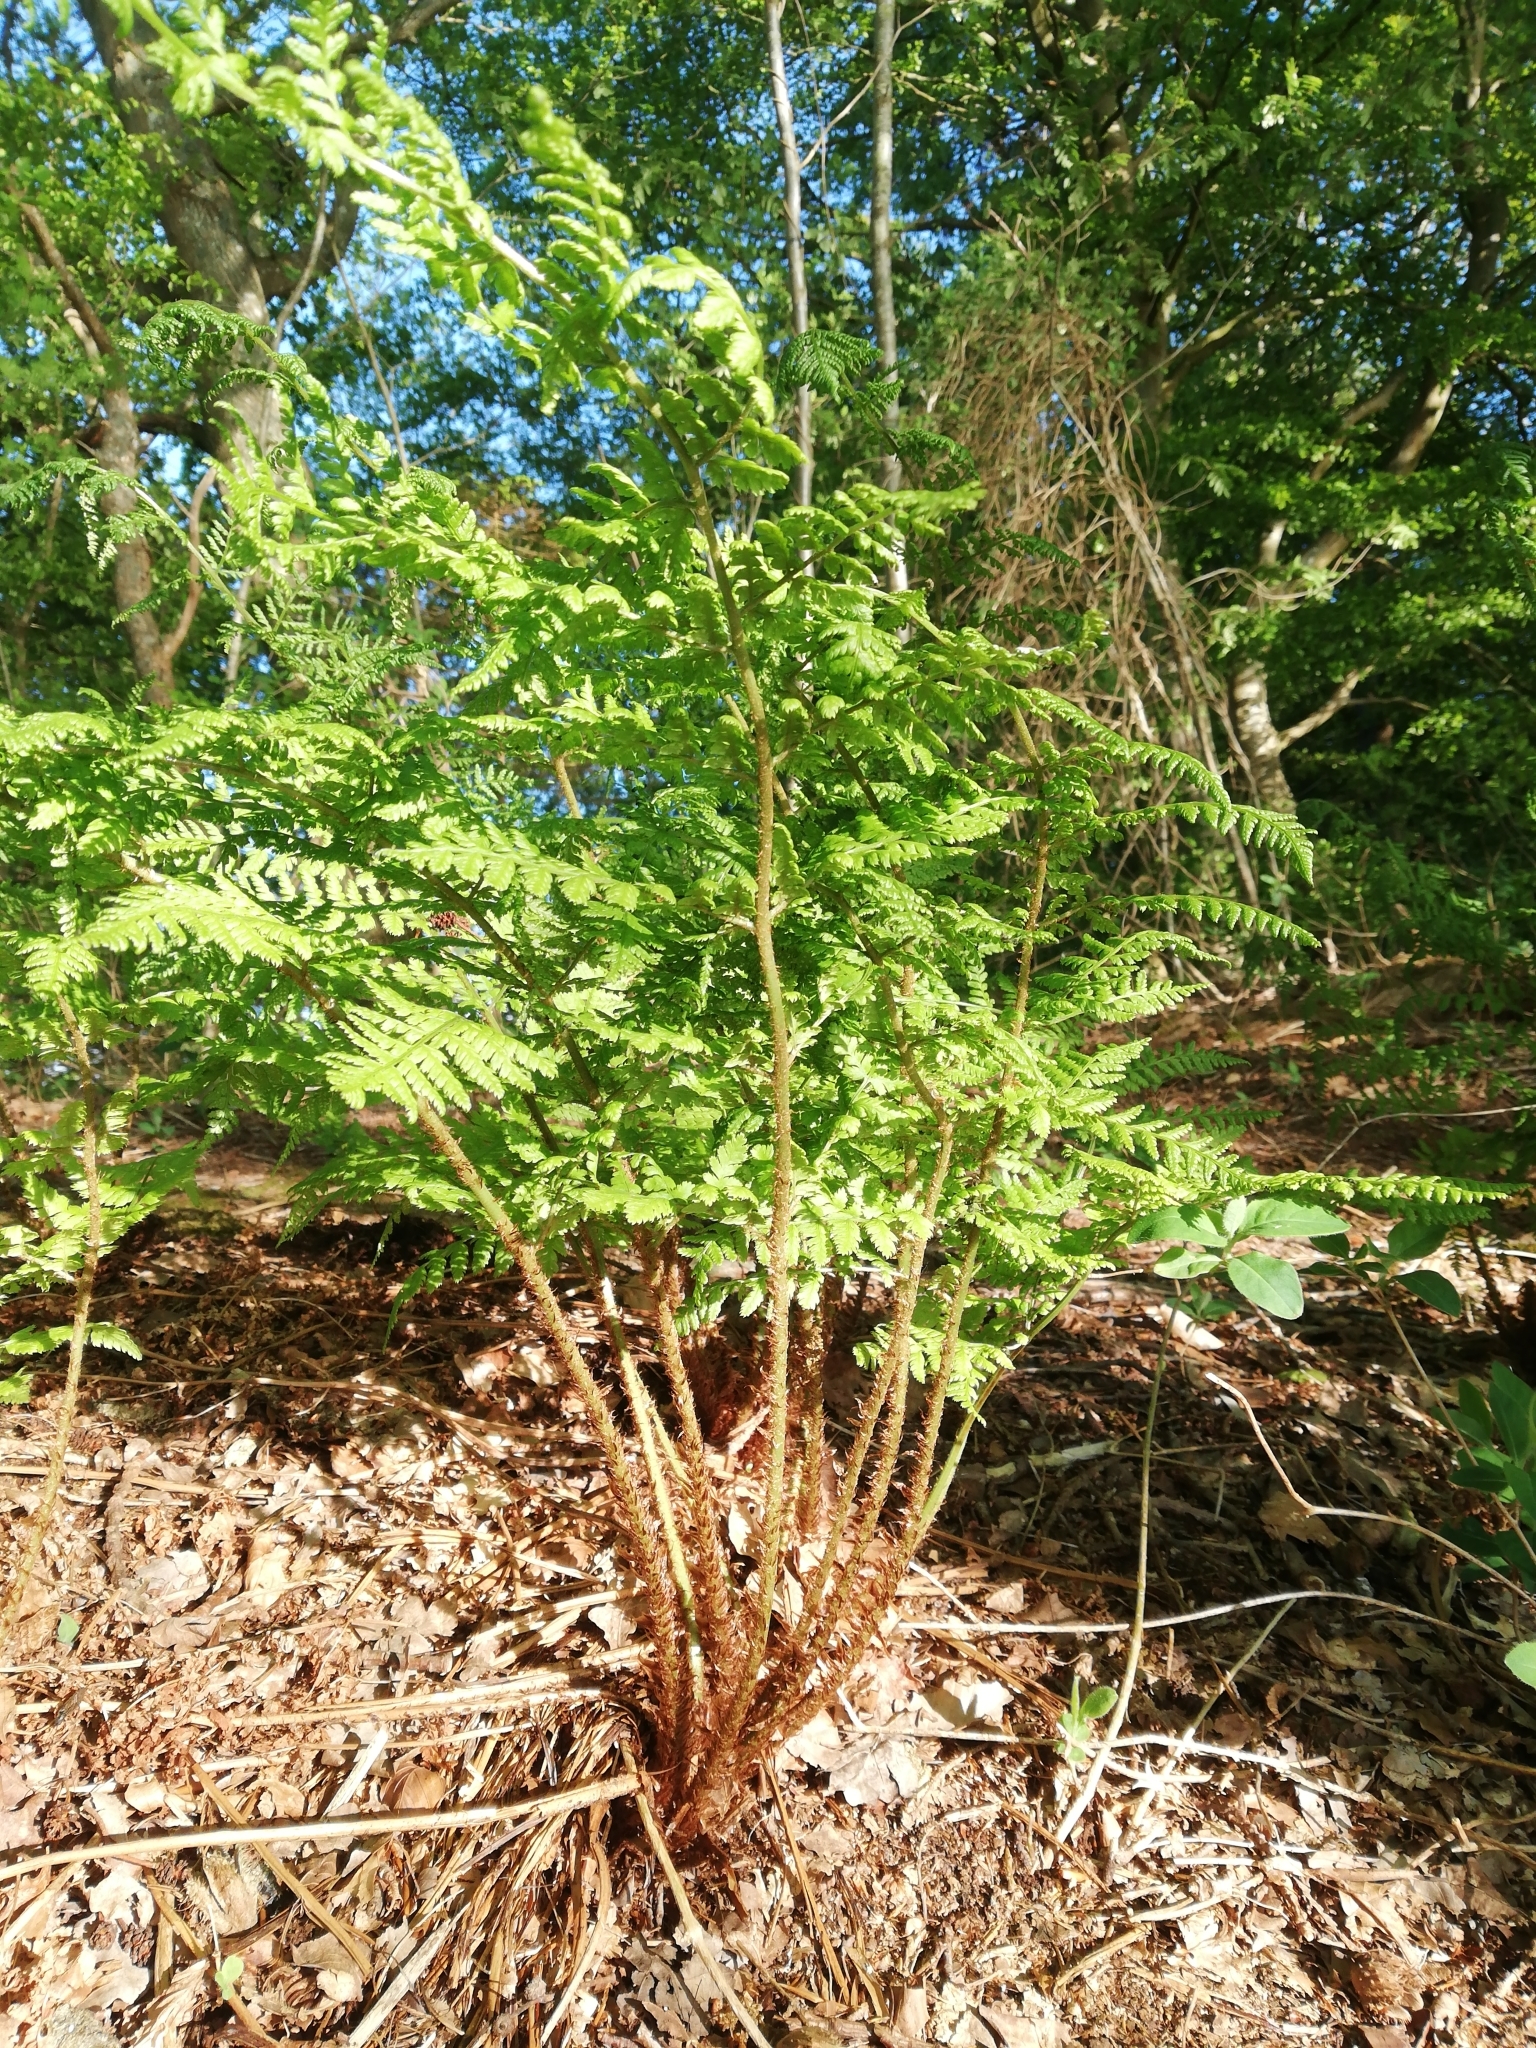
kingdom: Plantae
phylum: Tracheophyta
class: Polypodiopsida
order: Polypodiales
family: Dryopteridaceae
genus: Dryopteris
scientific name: Dryopteris dilatata
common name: Broad buckler-fern
